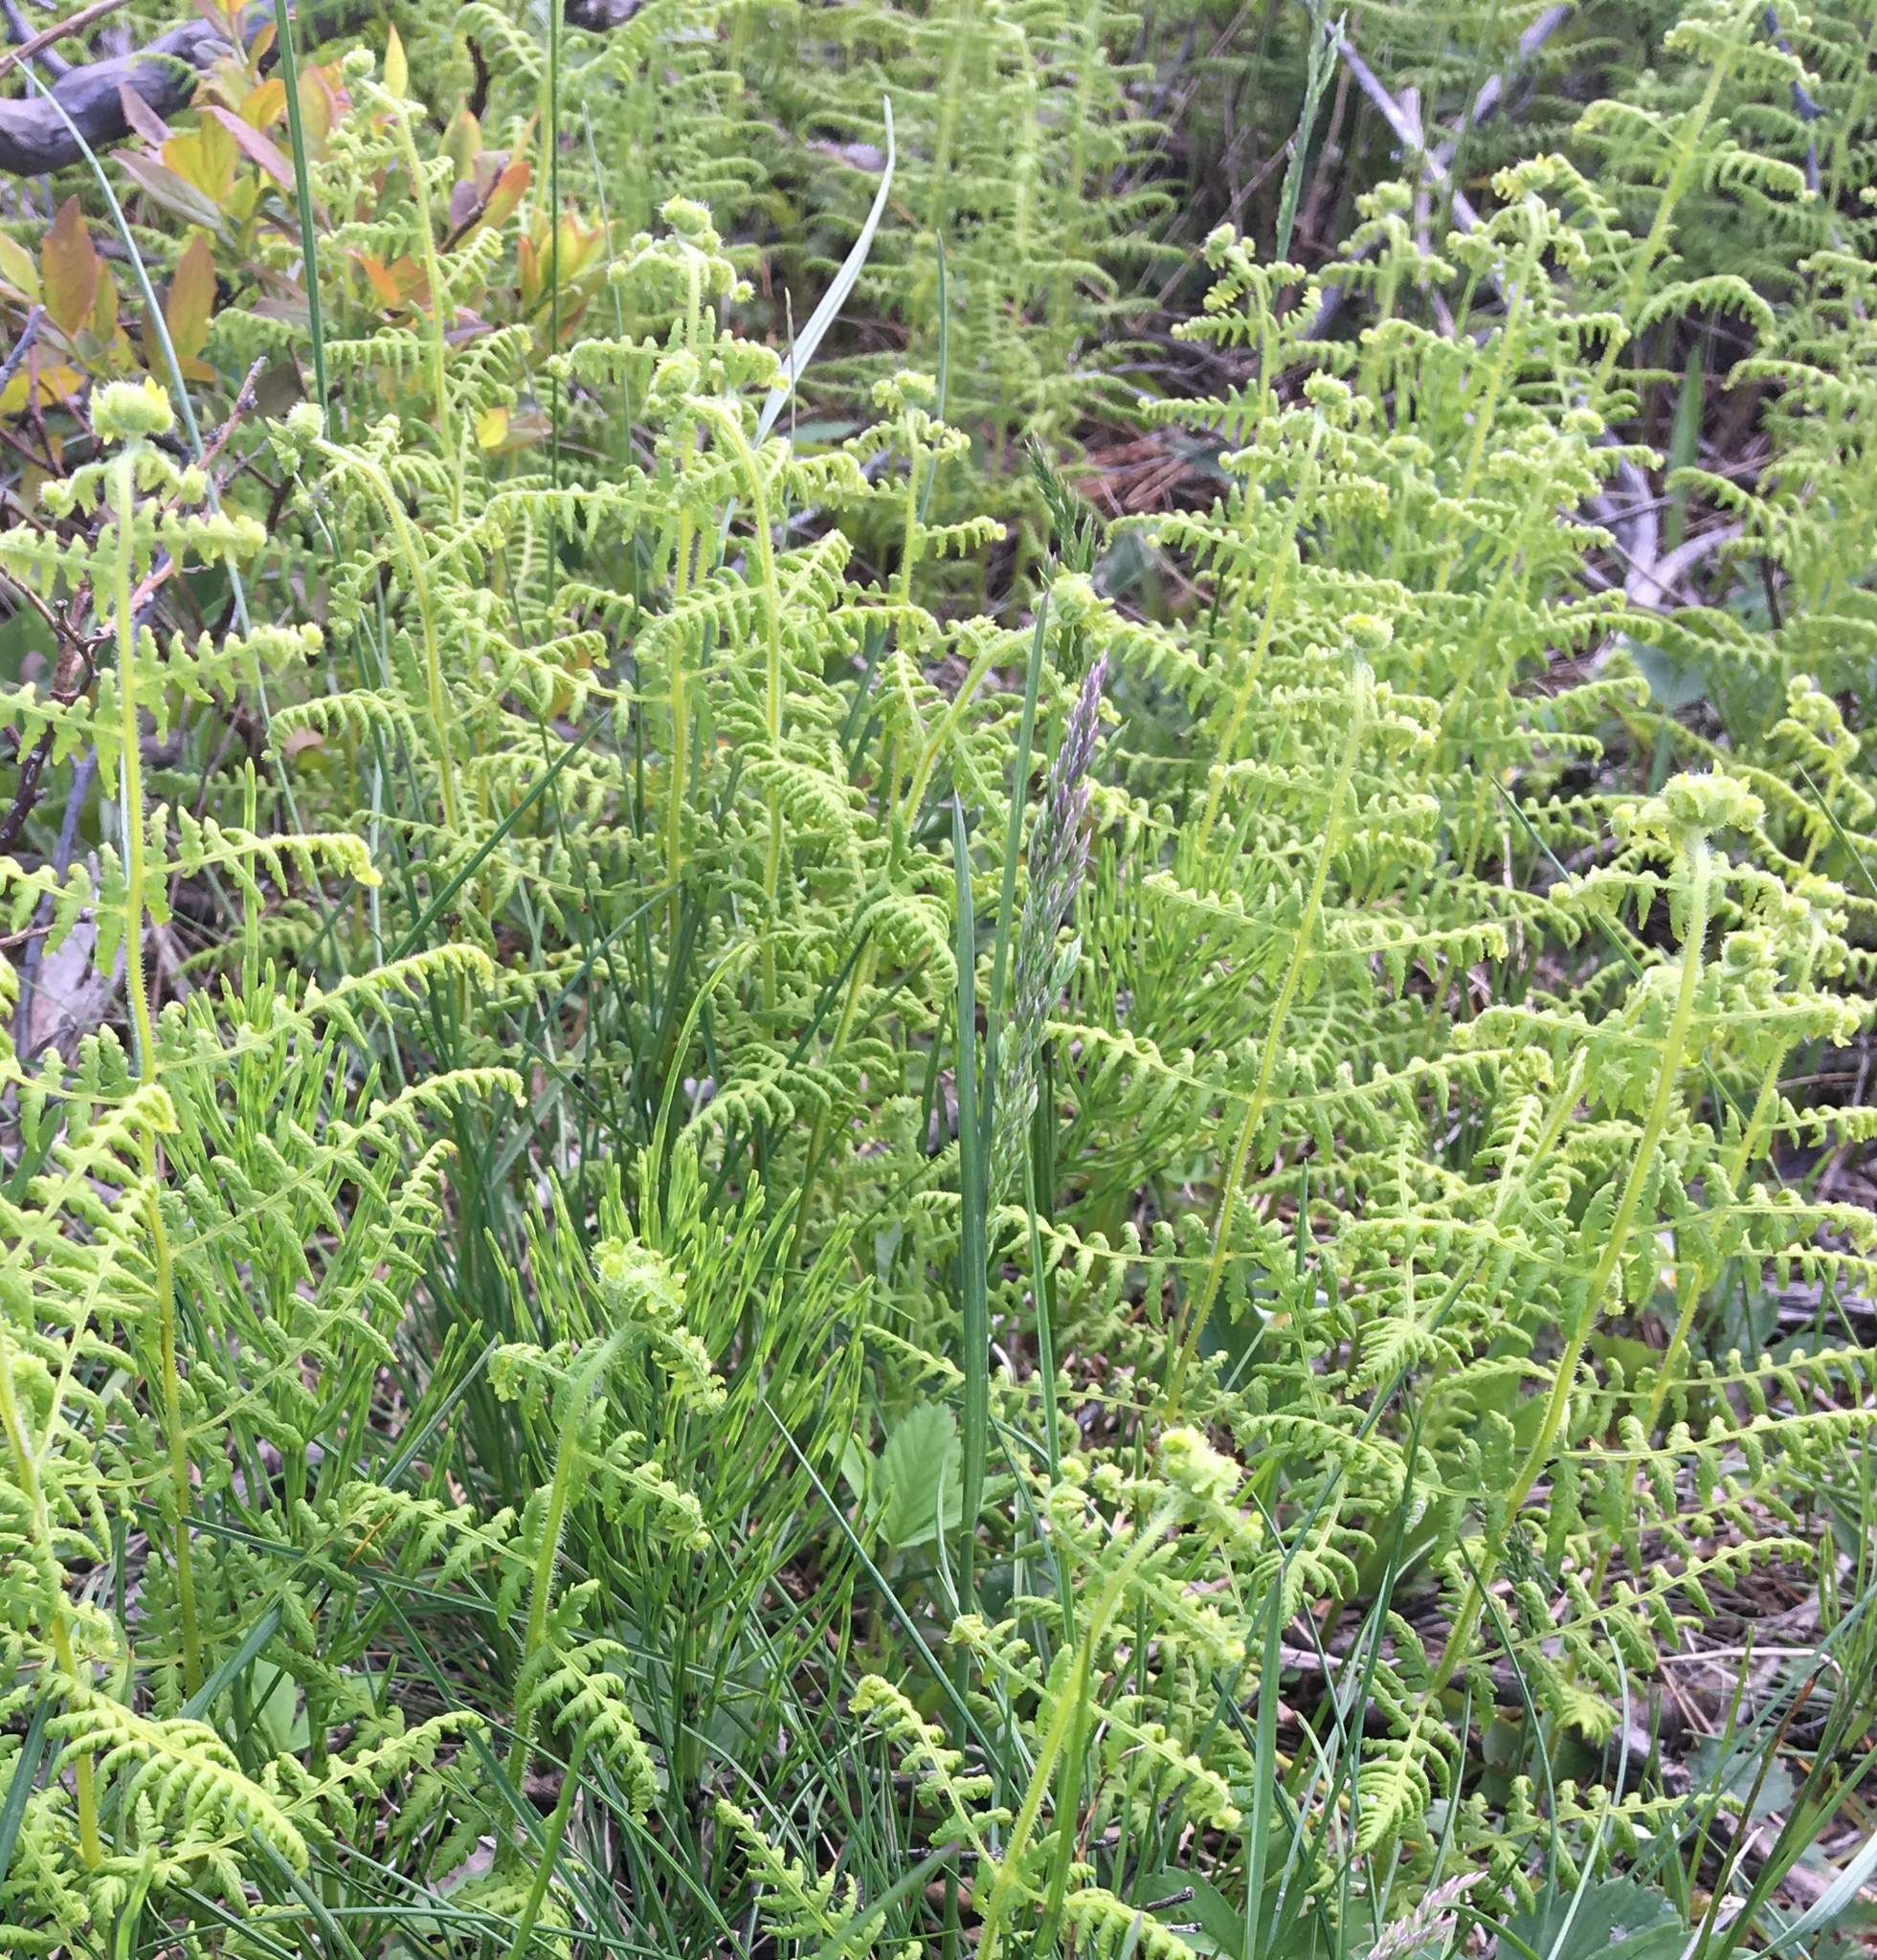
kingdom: Plantae
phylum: Tracheophyta
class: Polypodiopsida
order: Polypodiales
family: Dennstaedtiaceae
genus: Sitobolium
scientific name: Sitobolium punctilobum
